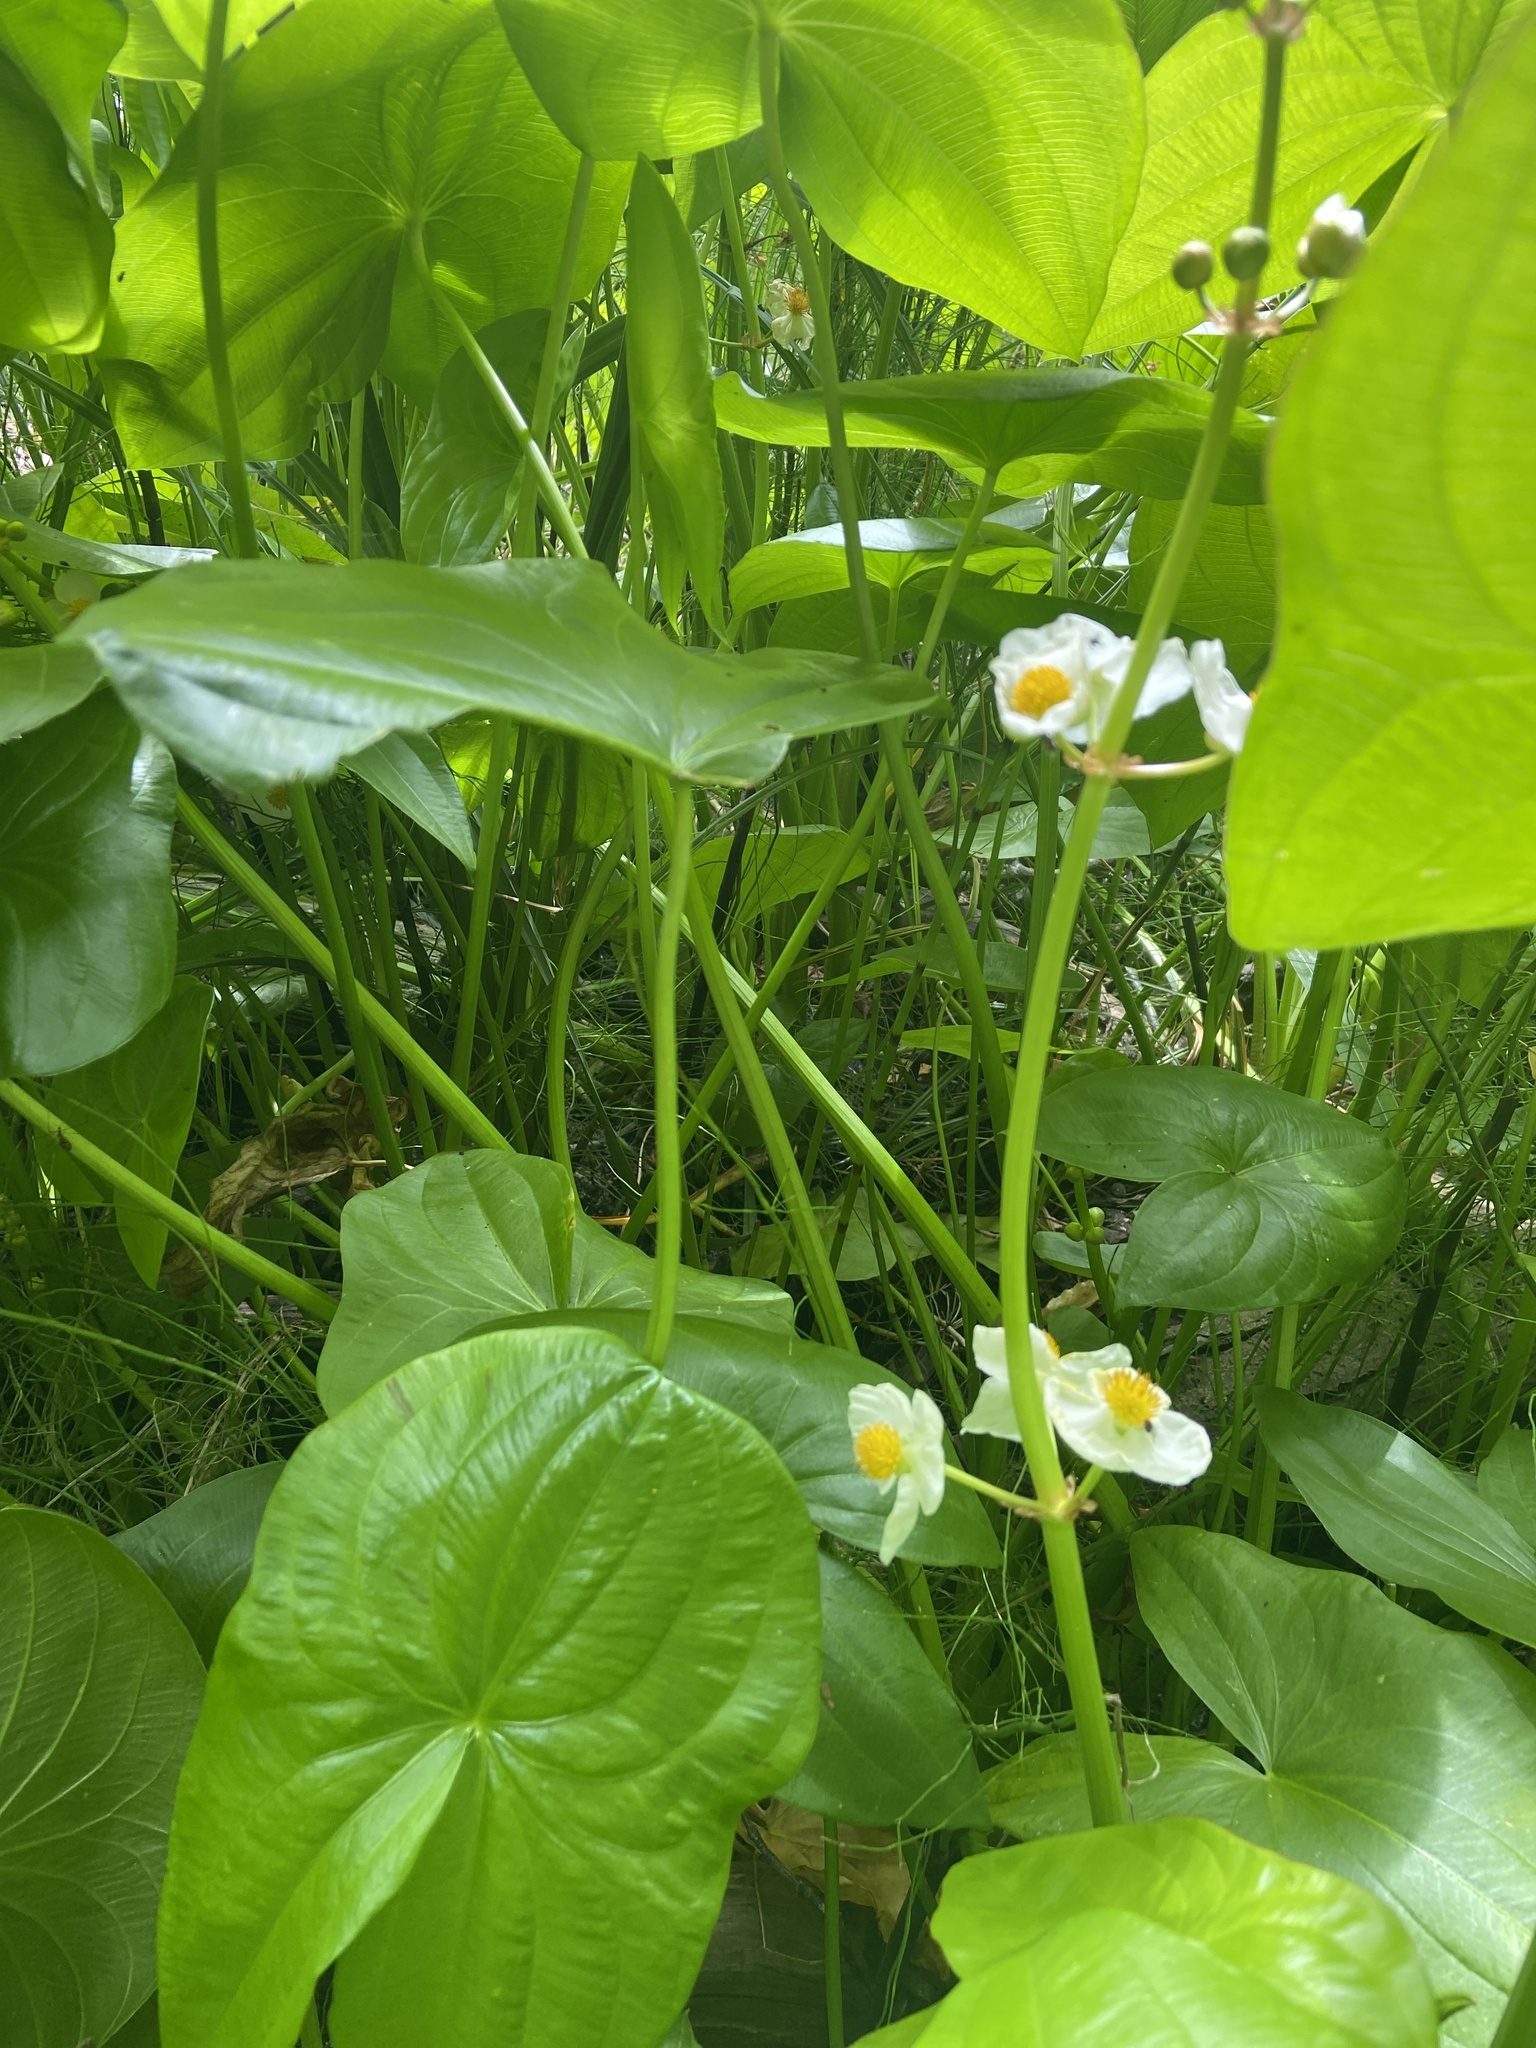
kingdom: Plantae
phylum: Tracheophyta
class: Liliopsida
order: Alismatales
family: Alismataceae
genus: Sagittaria
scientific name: Sagittaria latifolia
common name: Duck-potato
